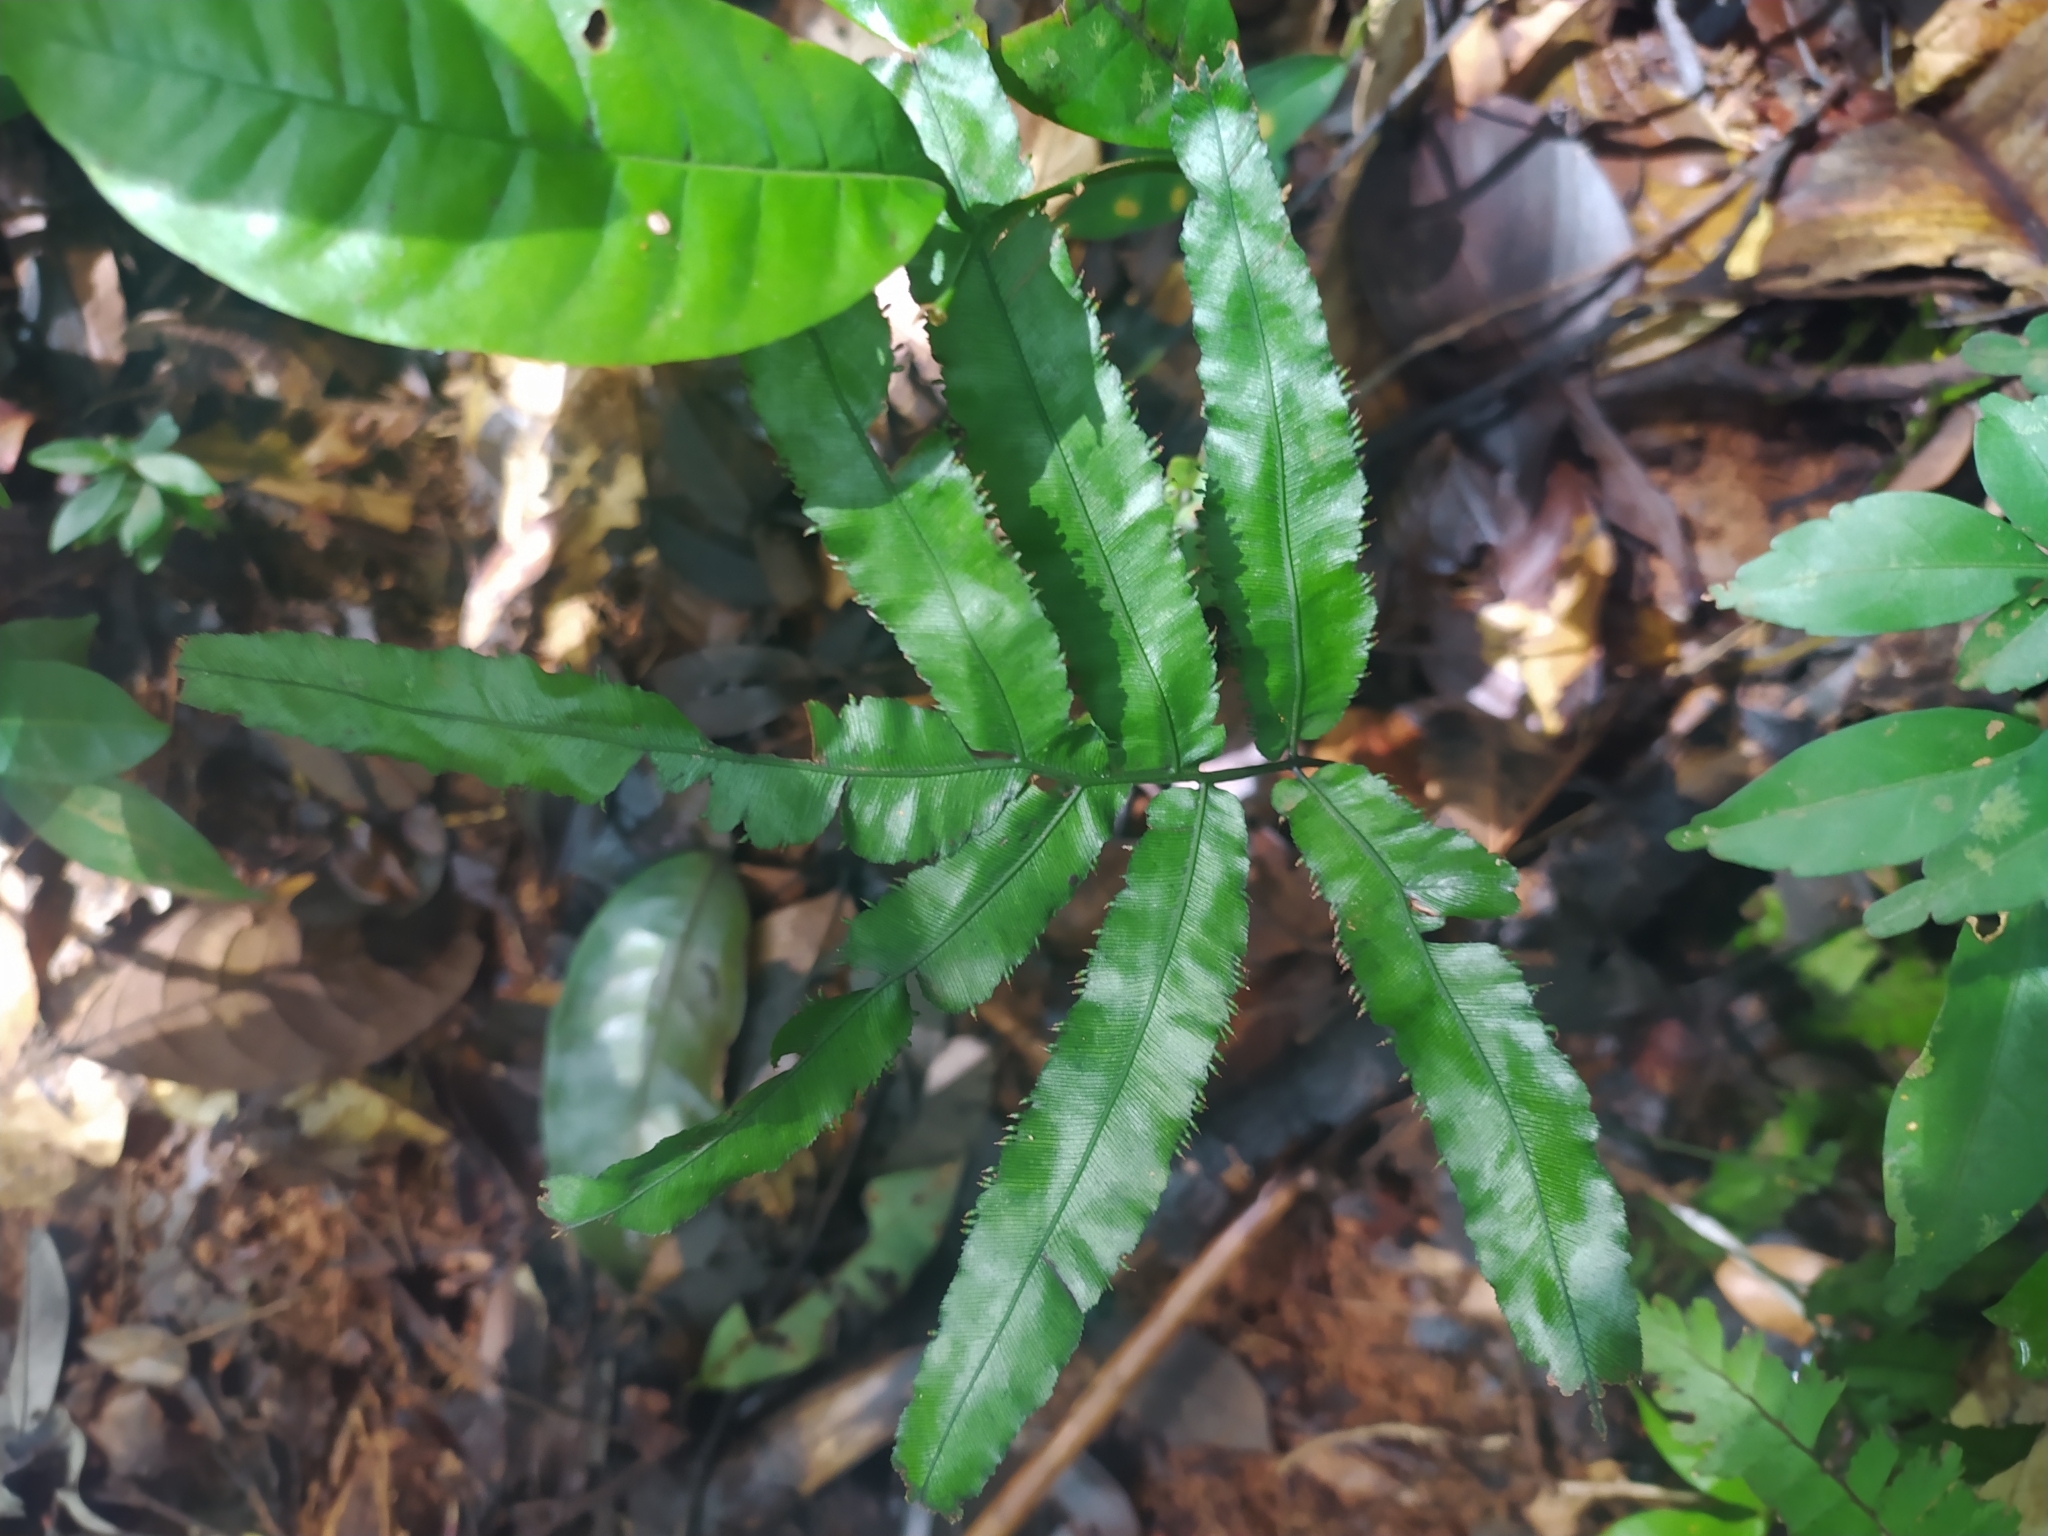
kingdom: Plantae
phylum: Tracheophyta
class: Polypodiopsida
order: Hymenophyllales
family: Hymenophyllaceae
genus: Trichomanes
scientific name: Trichomanes pinnatum
